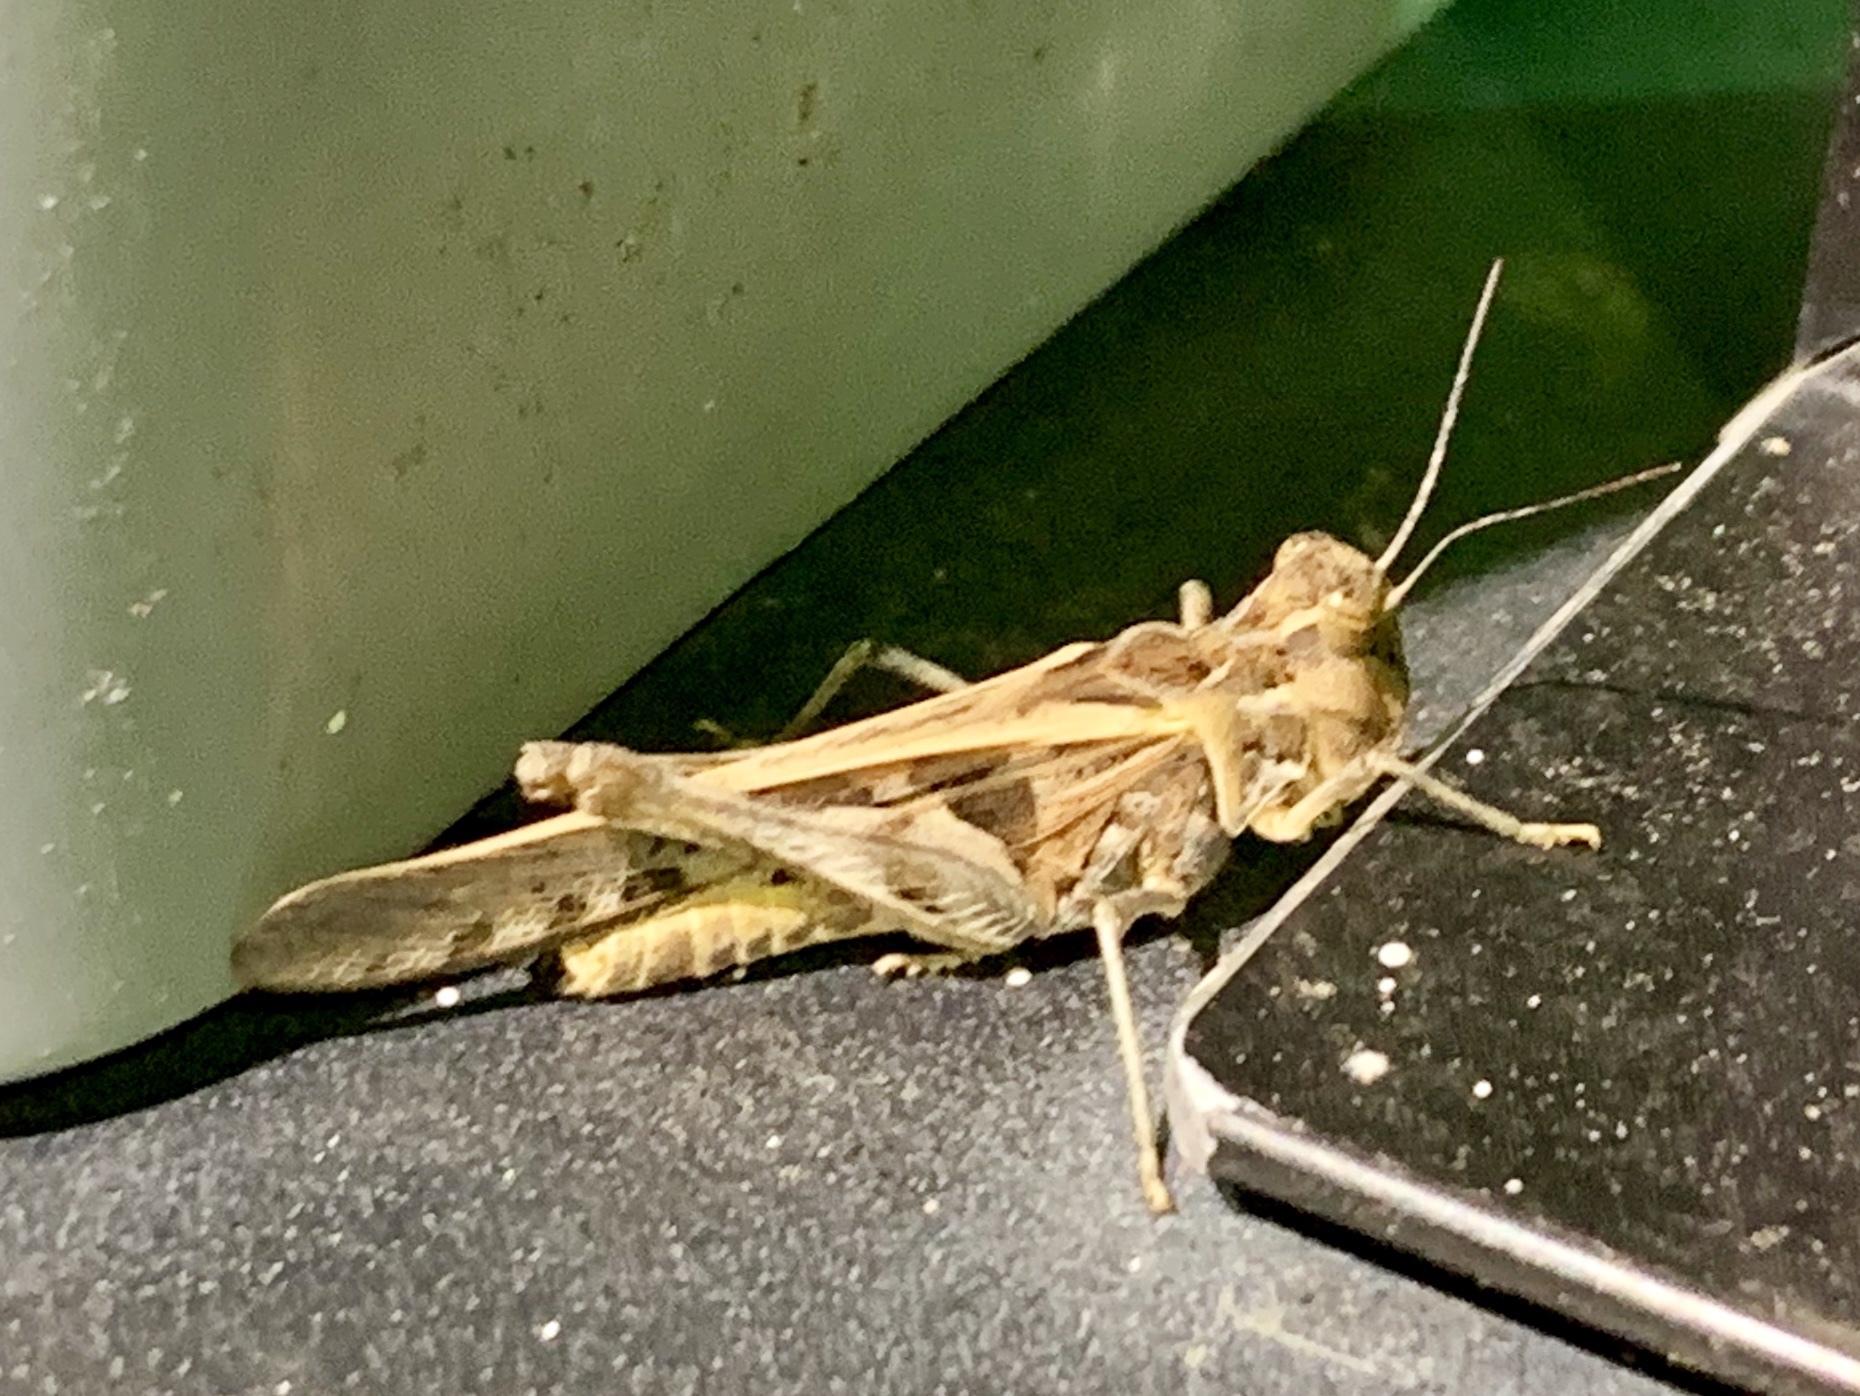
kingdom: Animalia
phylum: Arthropoda
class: Insecta
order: Orthoptera
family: Acrididae
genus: Hippopedon
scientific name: Hippopedon capito
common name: Apache grasshopper
